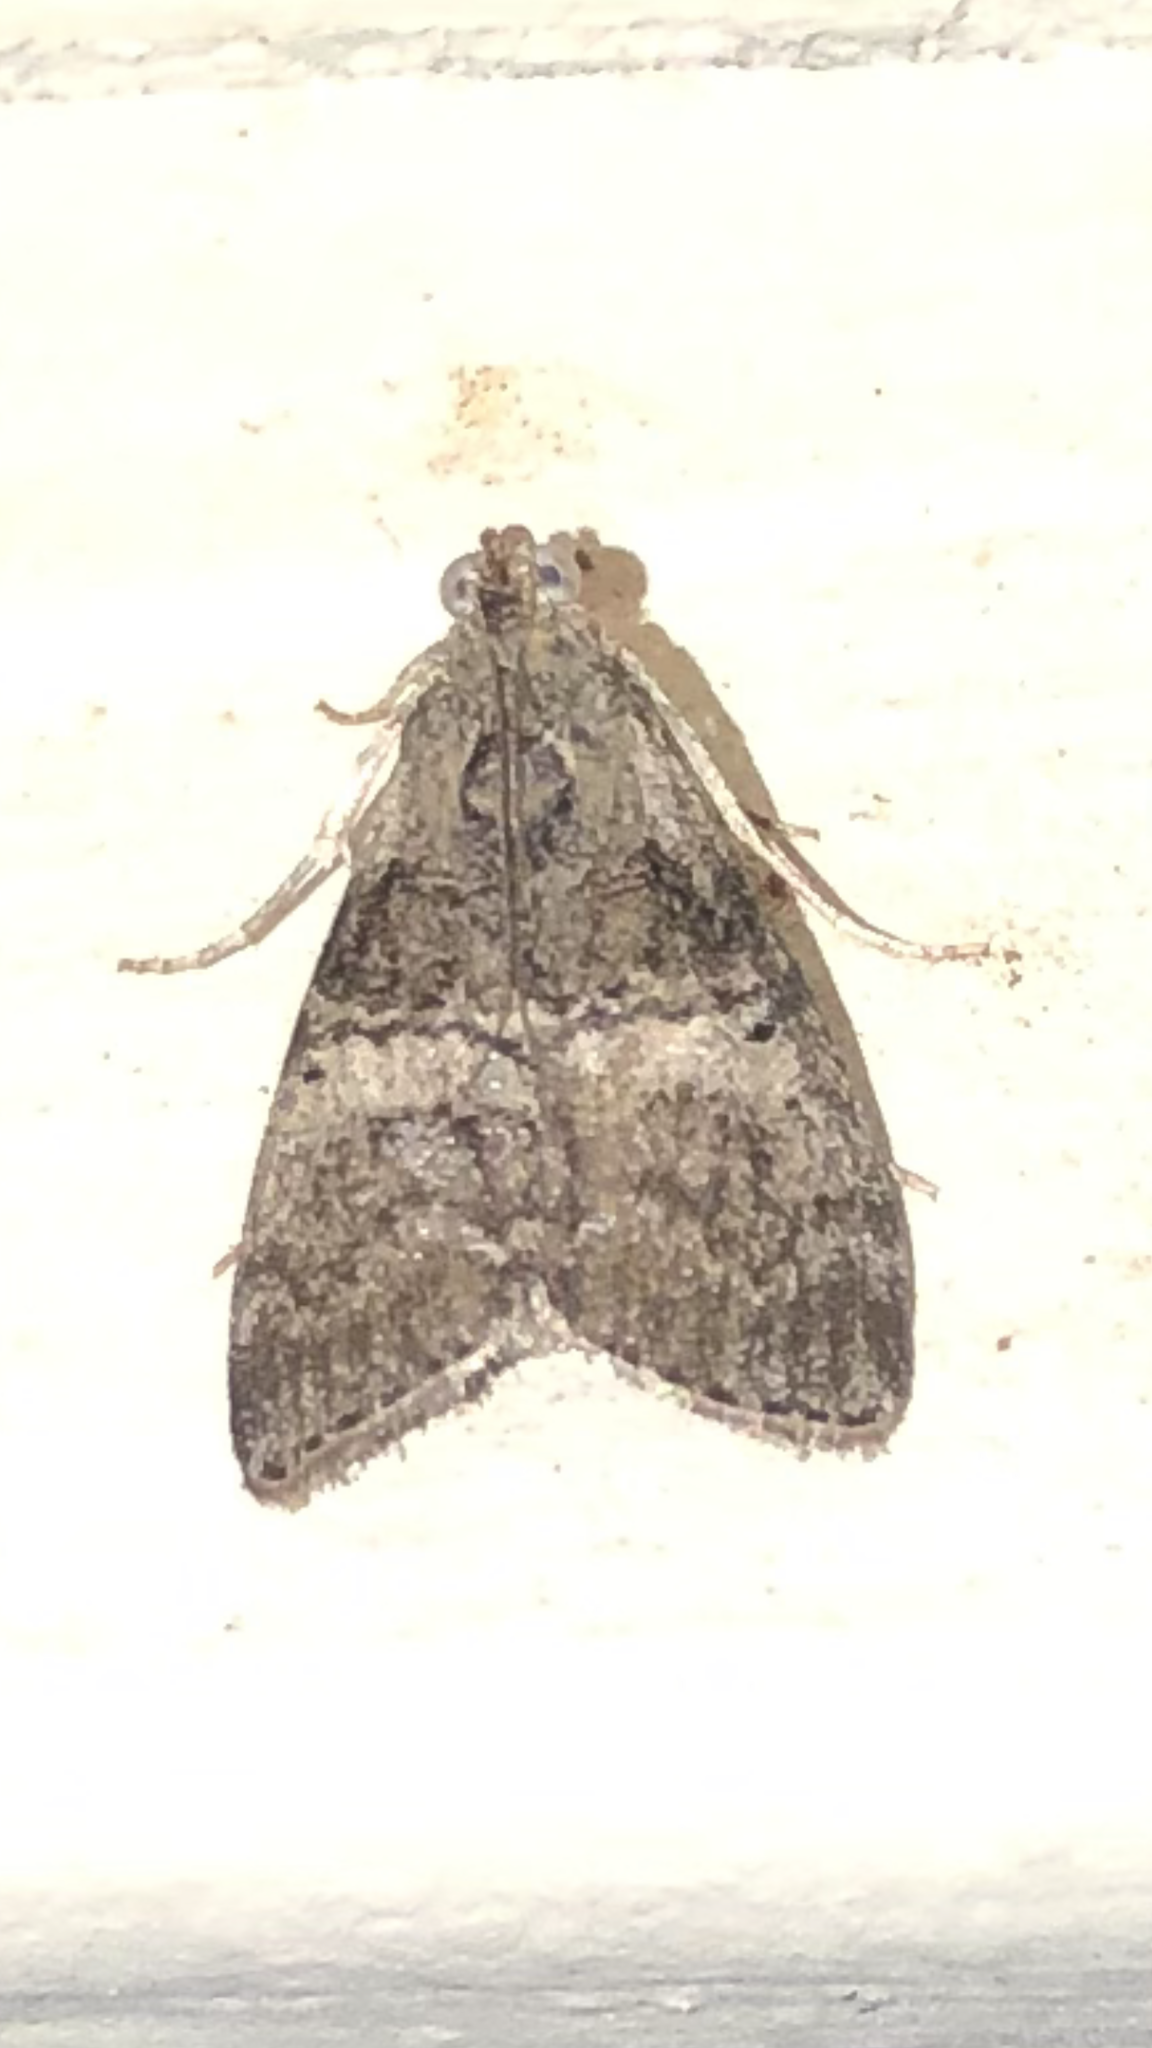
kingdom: Animalia
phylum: Arthropoda
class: Insecta
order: Lepidoptera
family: Pyralidae
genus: Pococera
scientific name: Pococera asperatella
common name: Maple webworm moth
